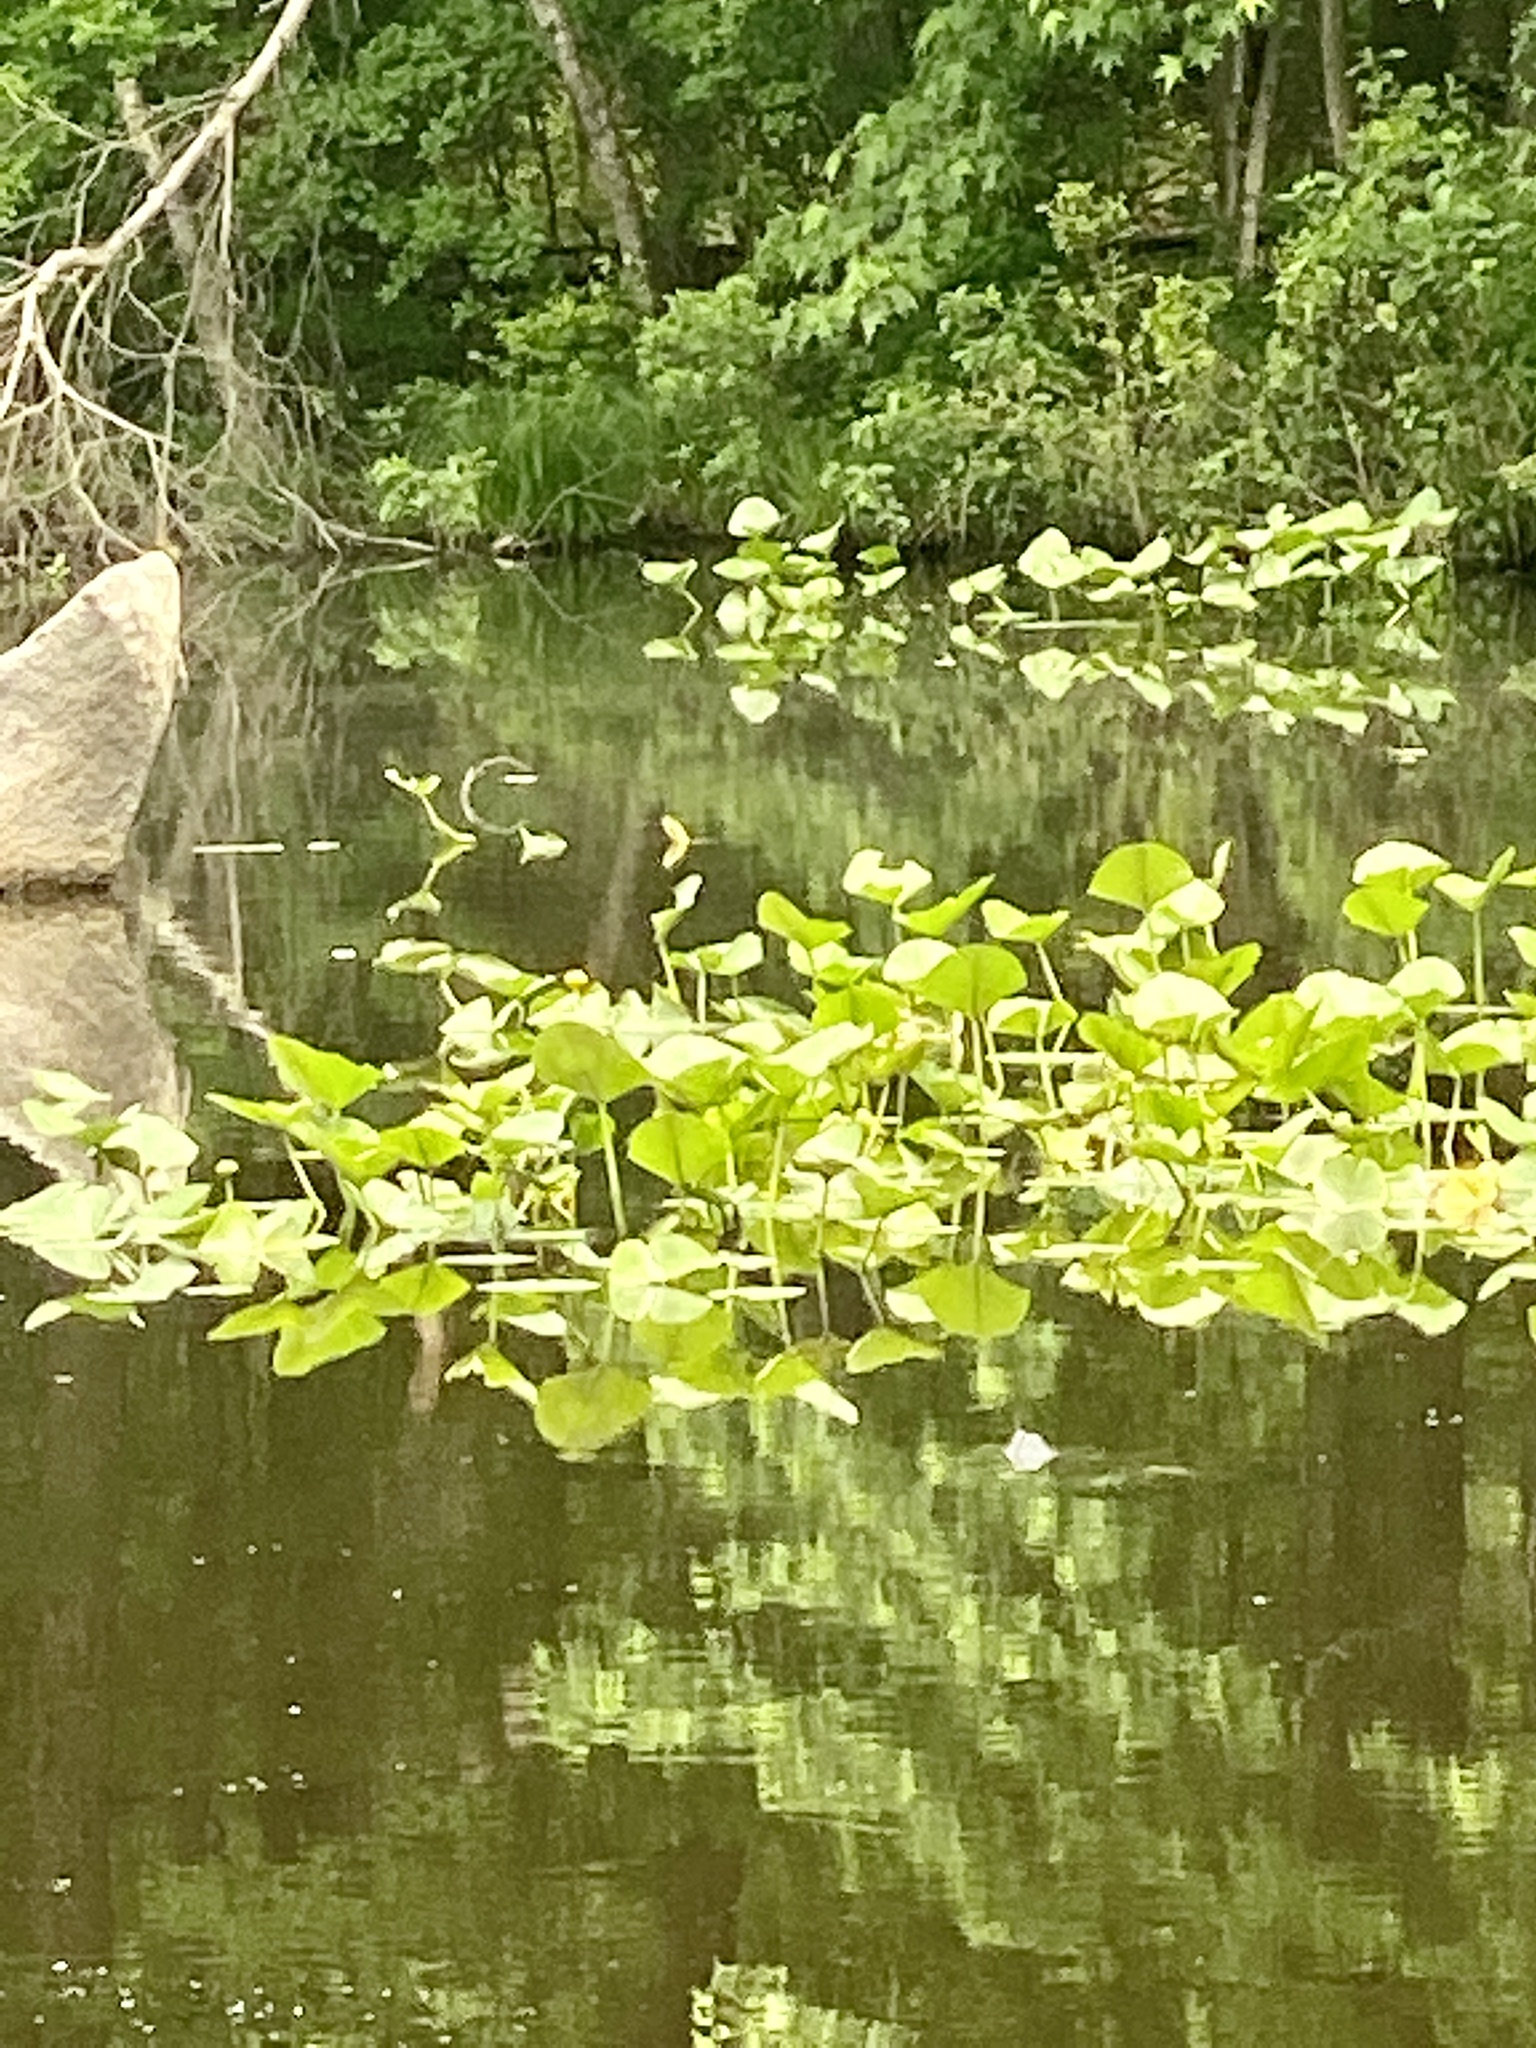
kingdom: Plantae
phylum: Tracheophyta
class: Magnoliopsida
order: Nymphaeales
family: Nymphaeaceae
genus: Nuphar
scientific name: Nuphar advena
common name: Spatter-dock
